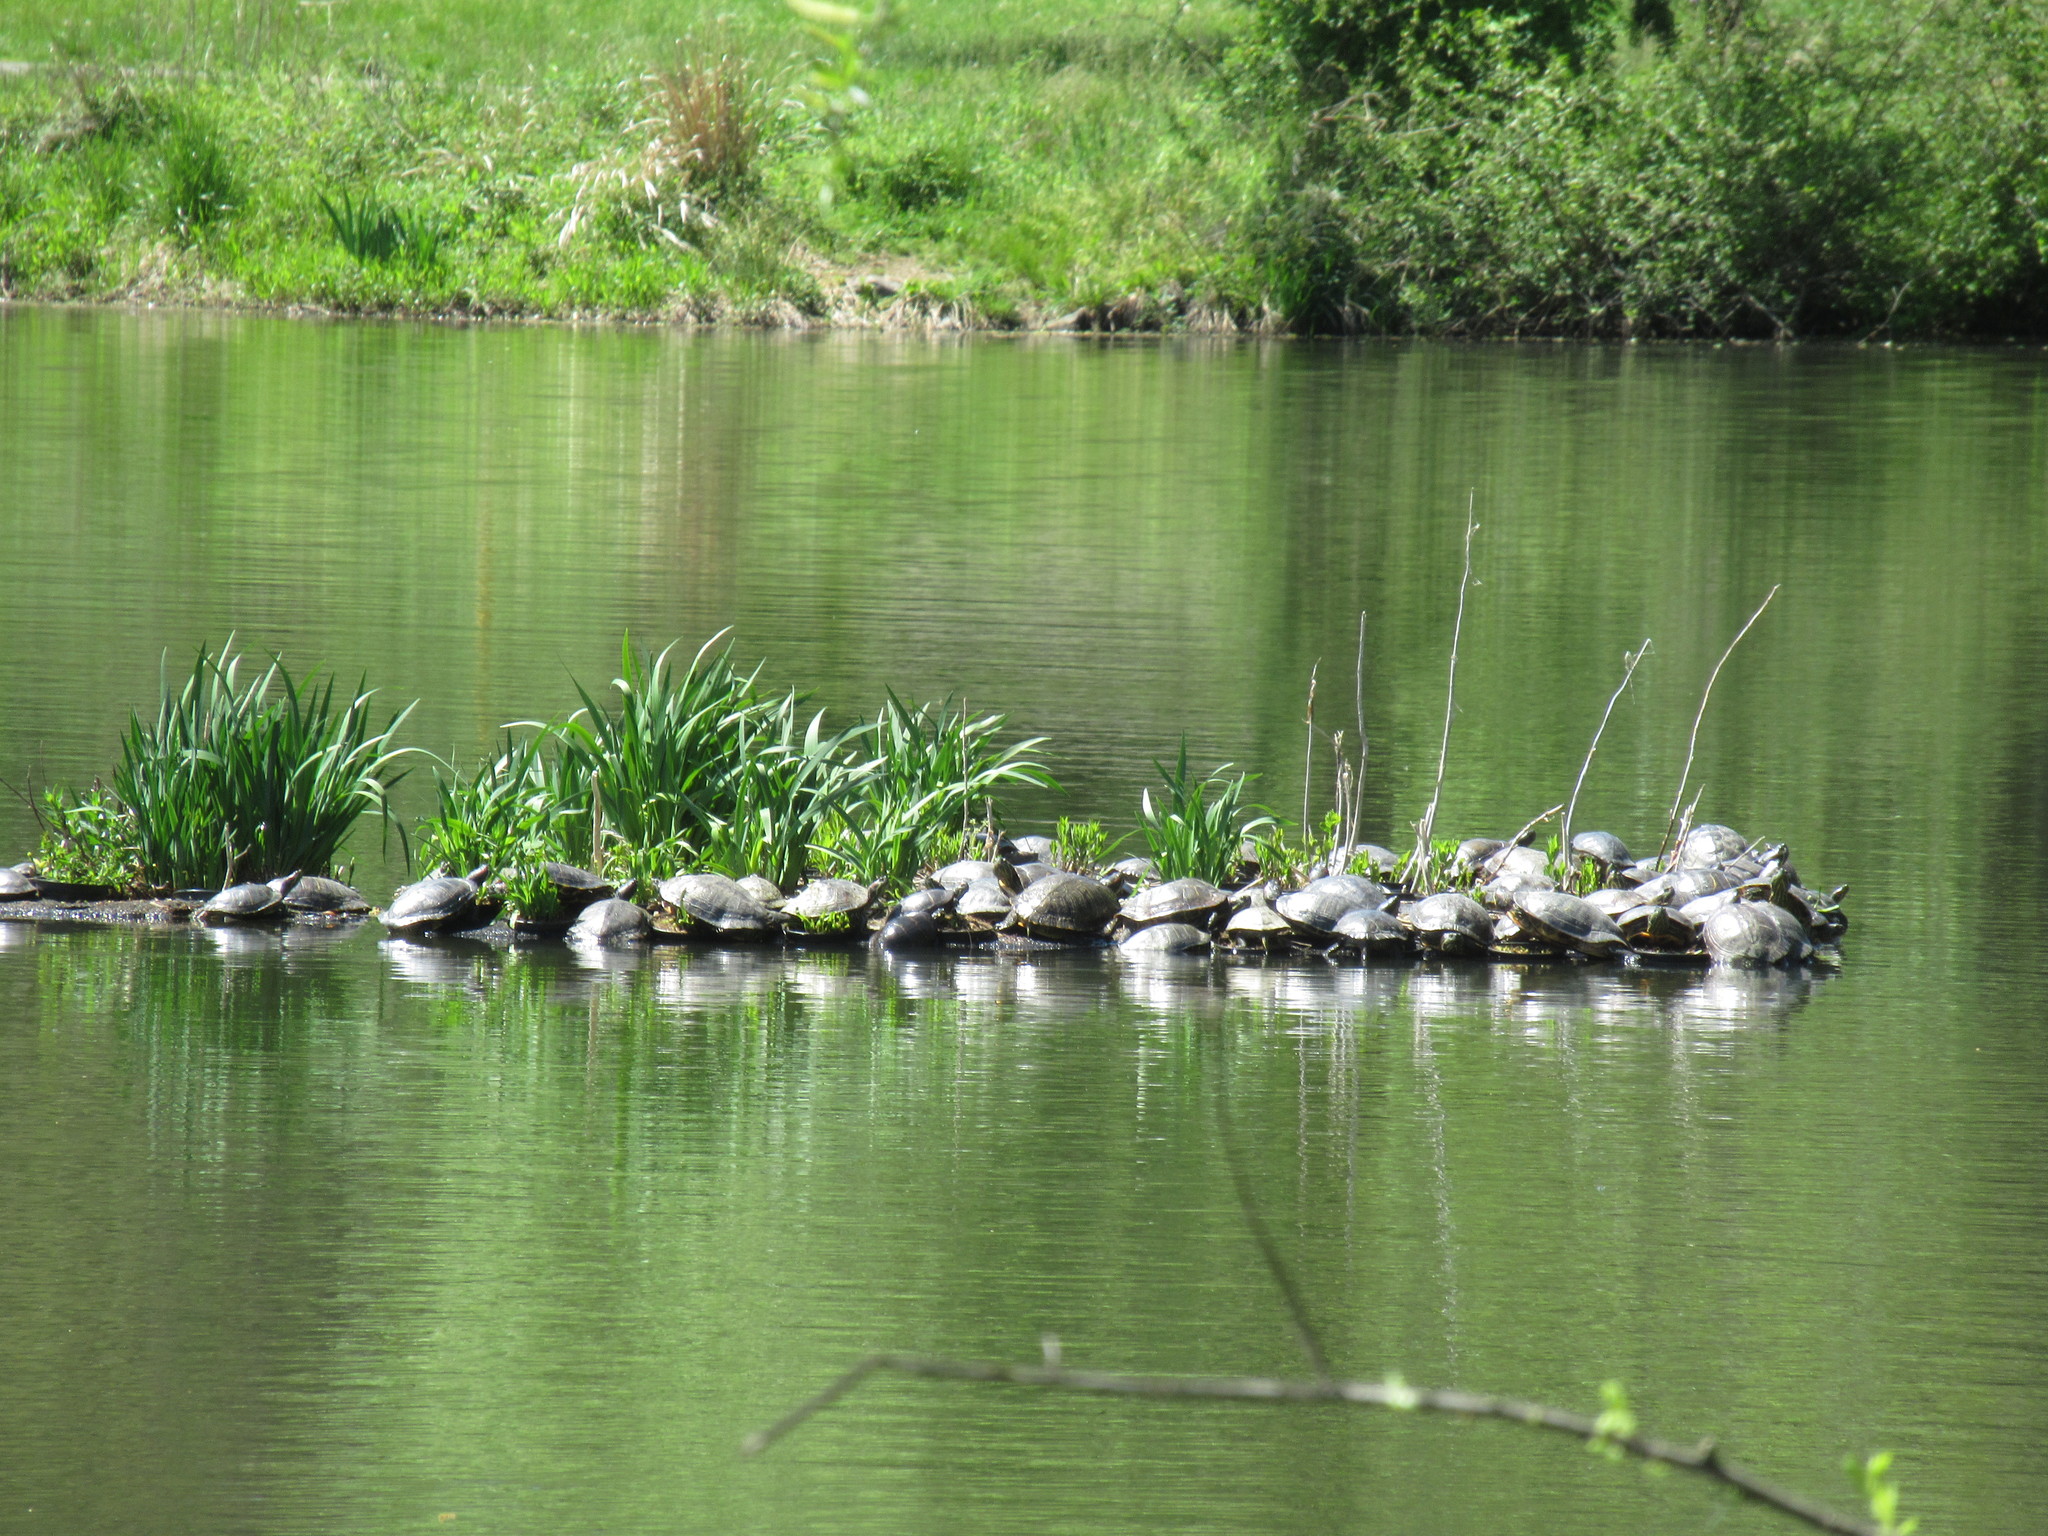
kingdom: Animalia
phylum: Chordata
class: Testudines
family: Emydidae
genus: Trachemys
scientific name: Trachemys scripta
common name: Slider
